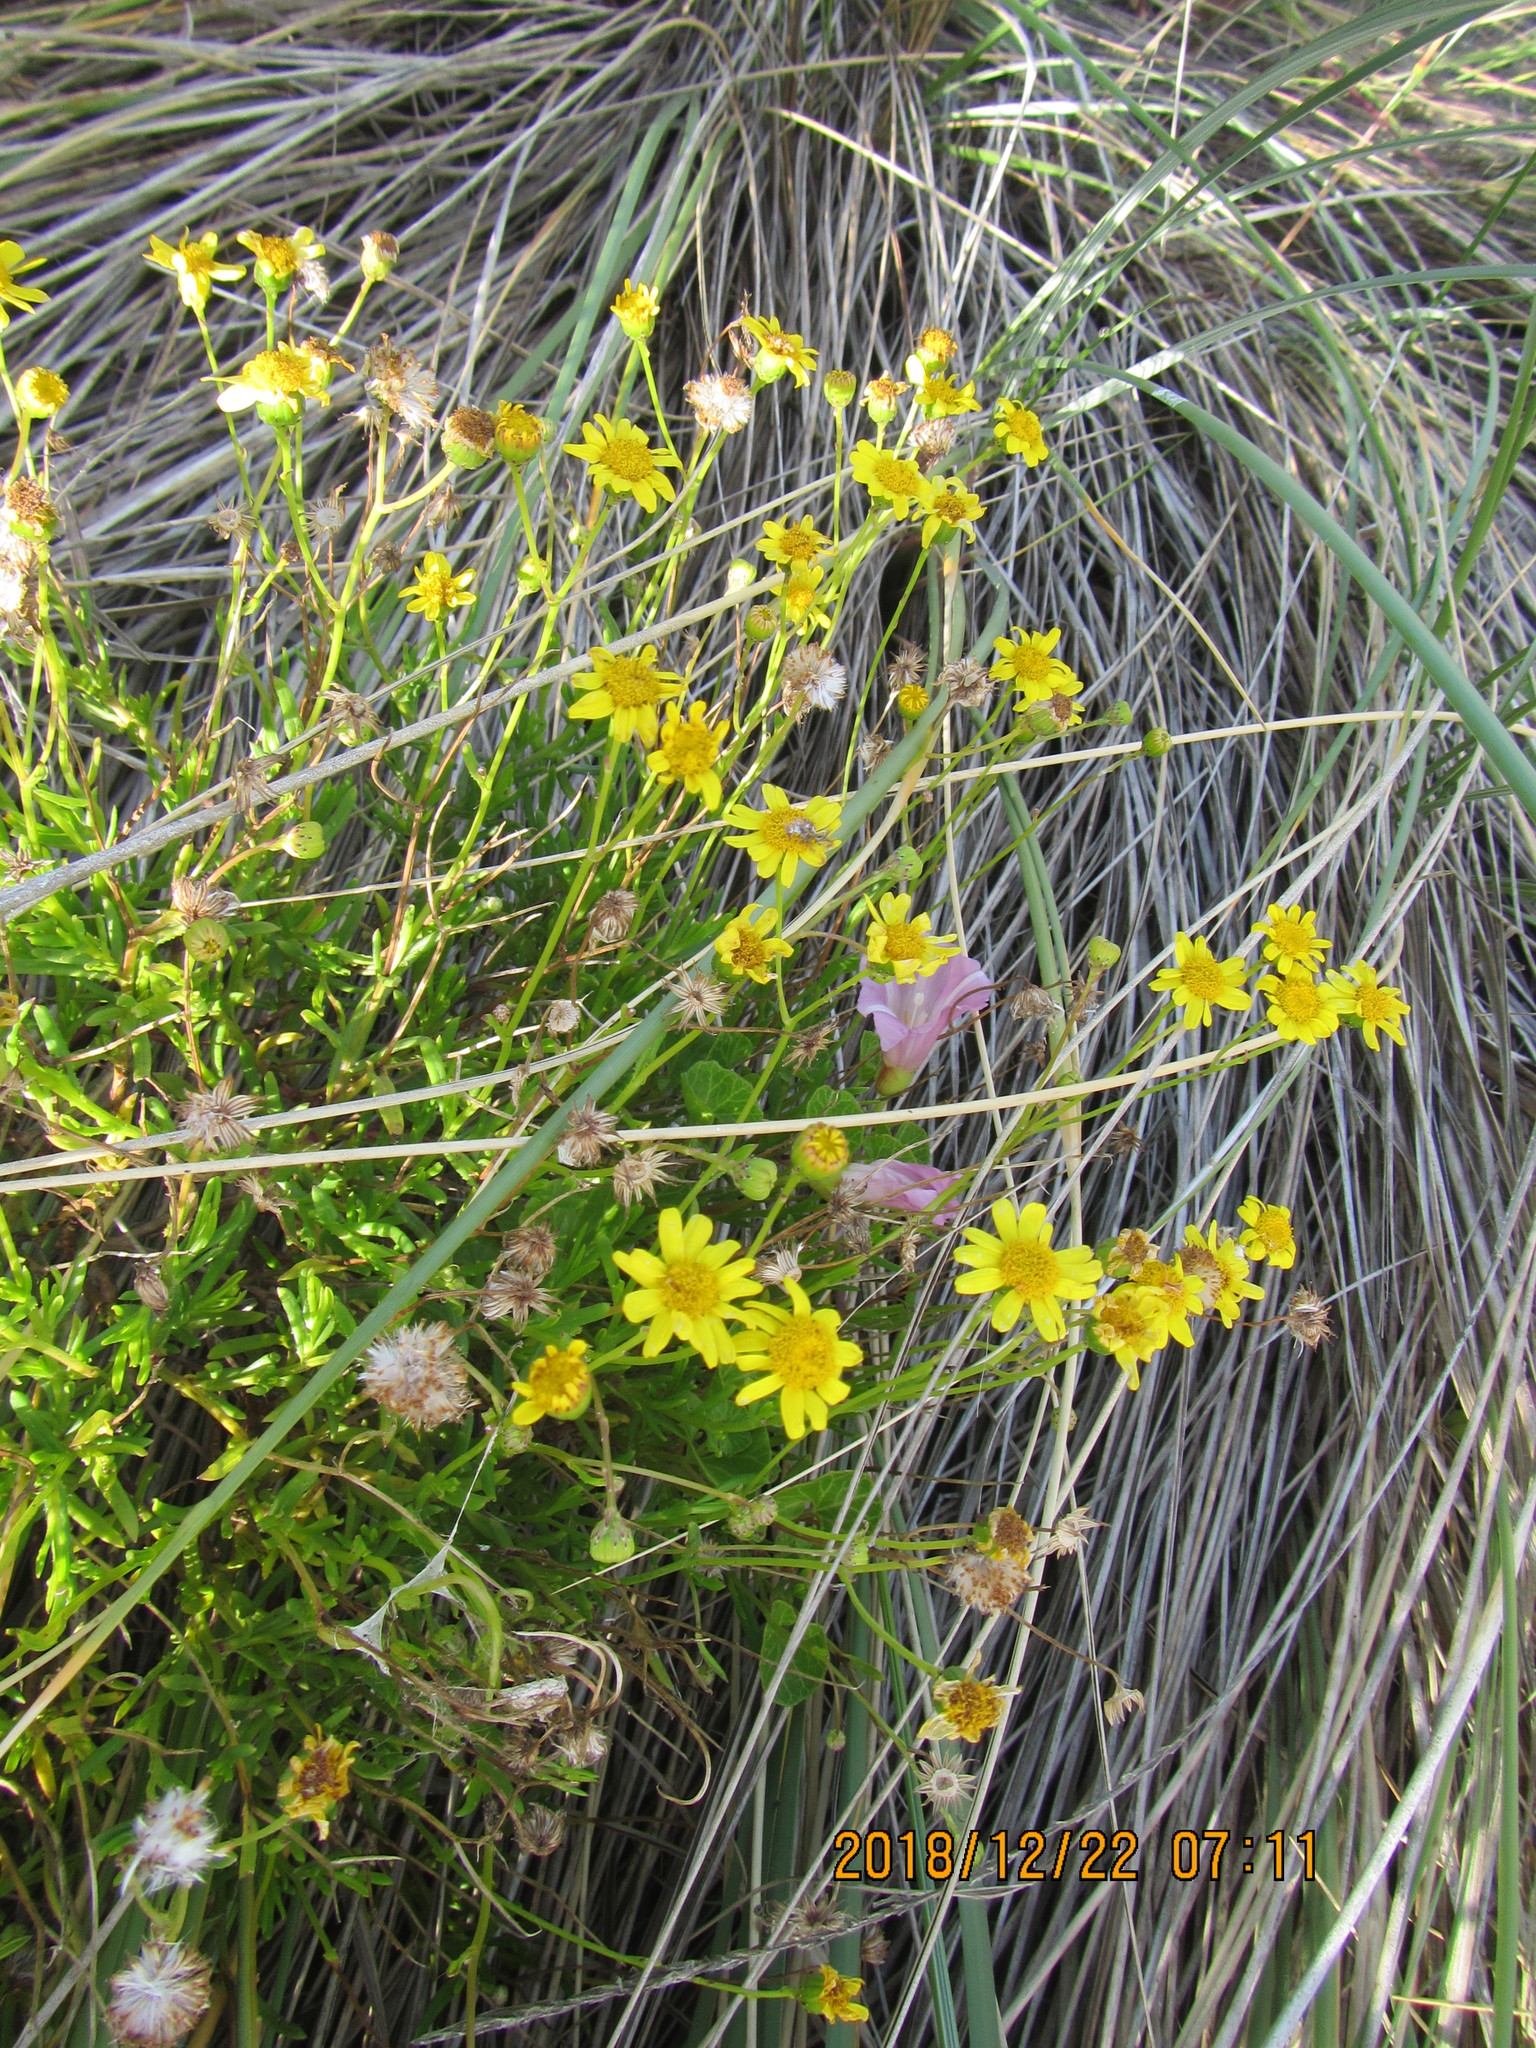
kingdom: Plantae
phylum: Tracheophyta
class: Magnoliopsida
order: Asterales
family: Asteraceae
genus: Senecio
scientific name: Senecio skirrhodon
